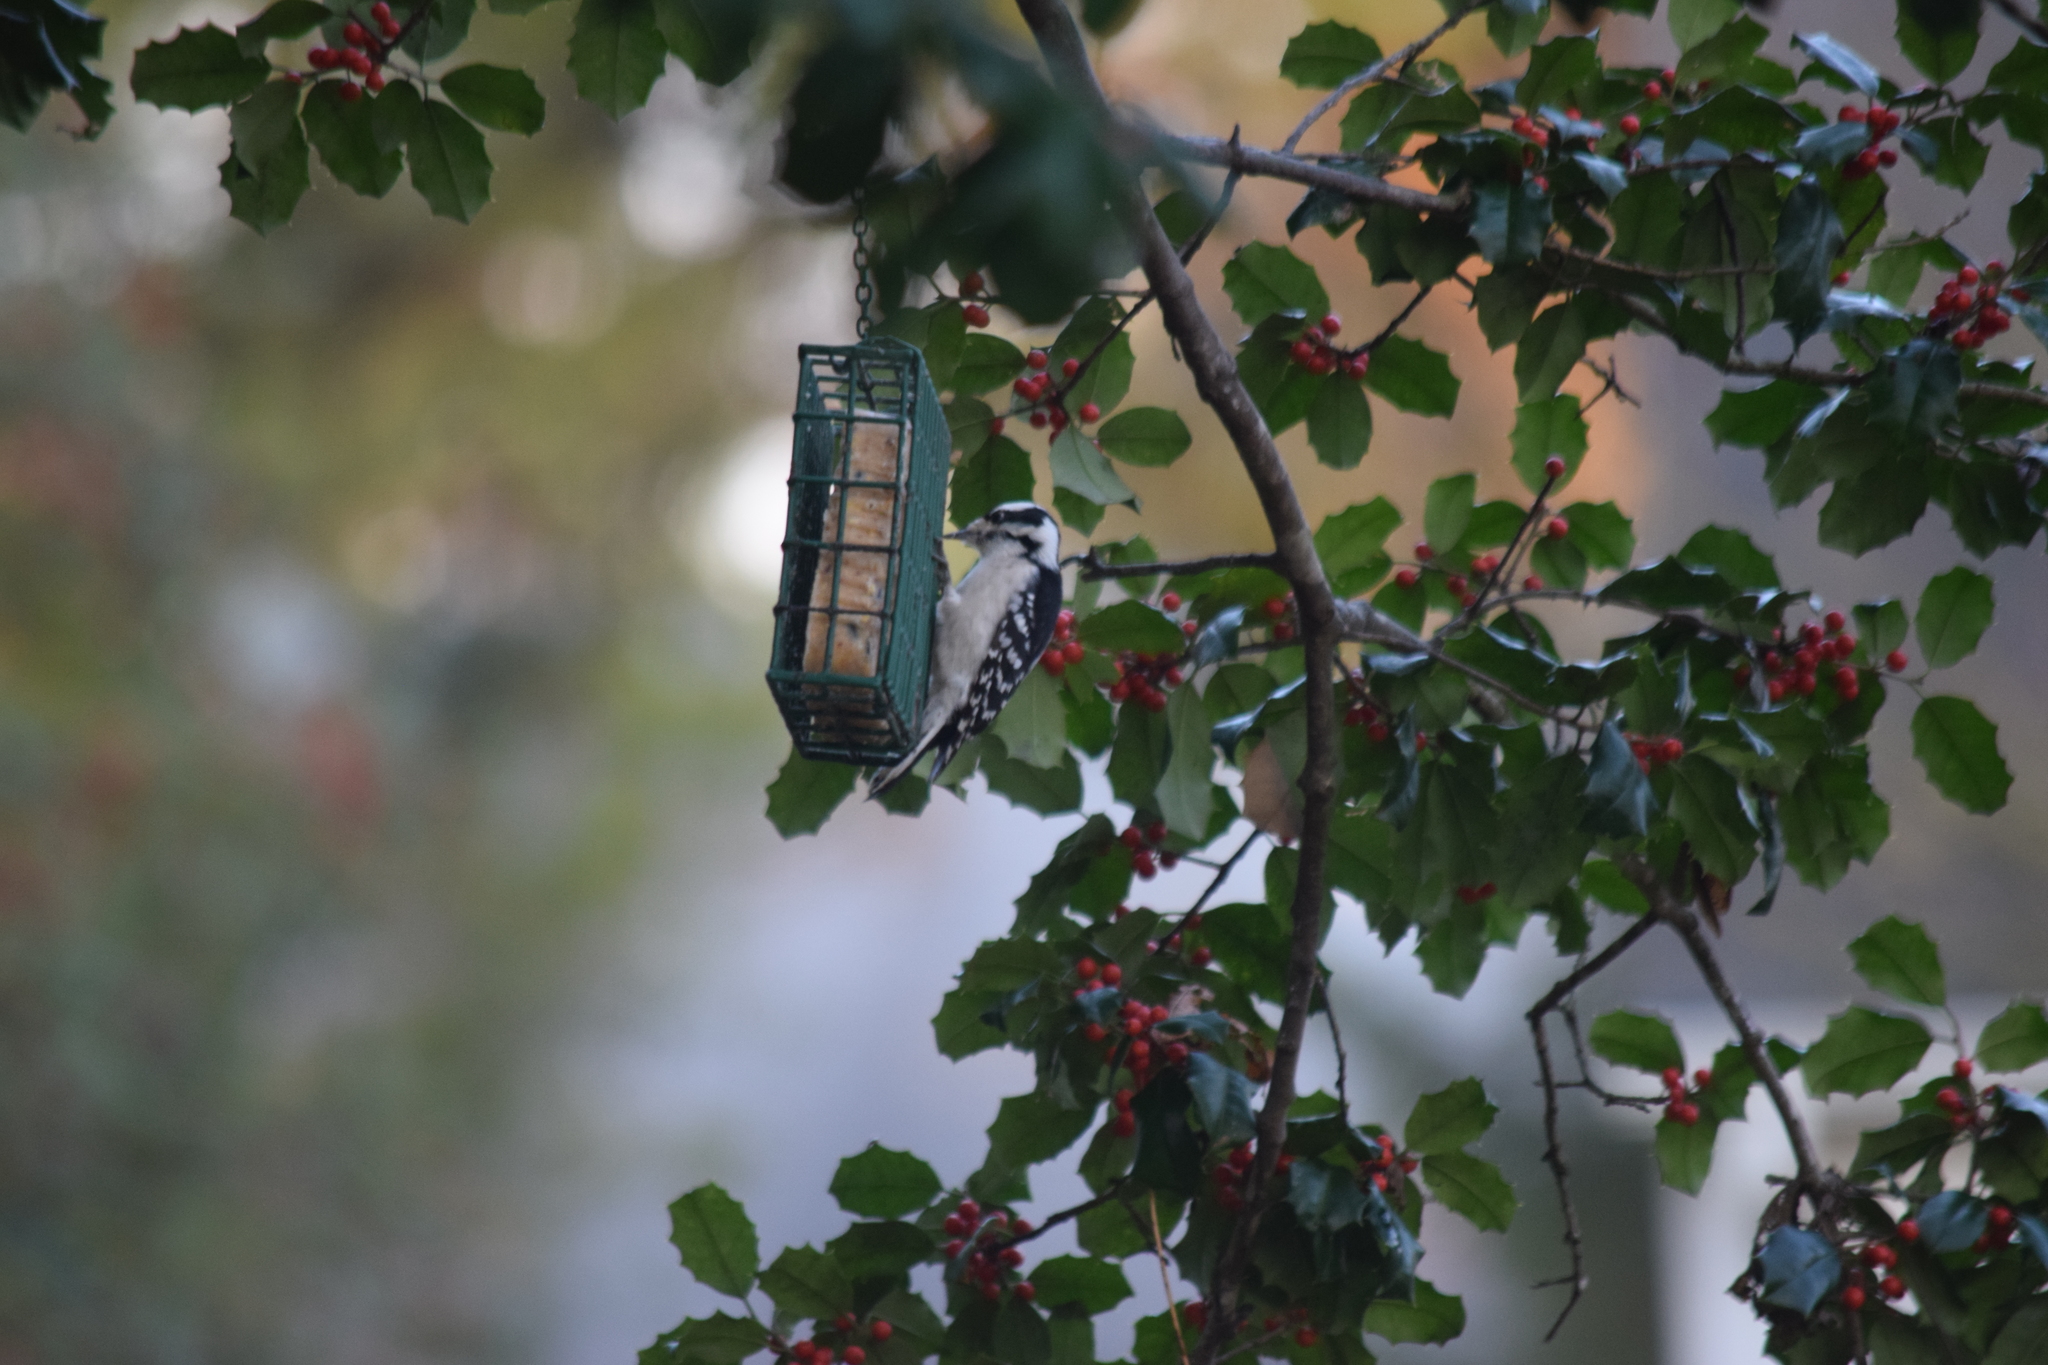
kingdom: Animalia
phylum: Chordata
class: Aves
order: Piciformes
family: Picidae
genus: Dryobates
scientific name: Dryobates pubescens
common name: Downy woodpecker
